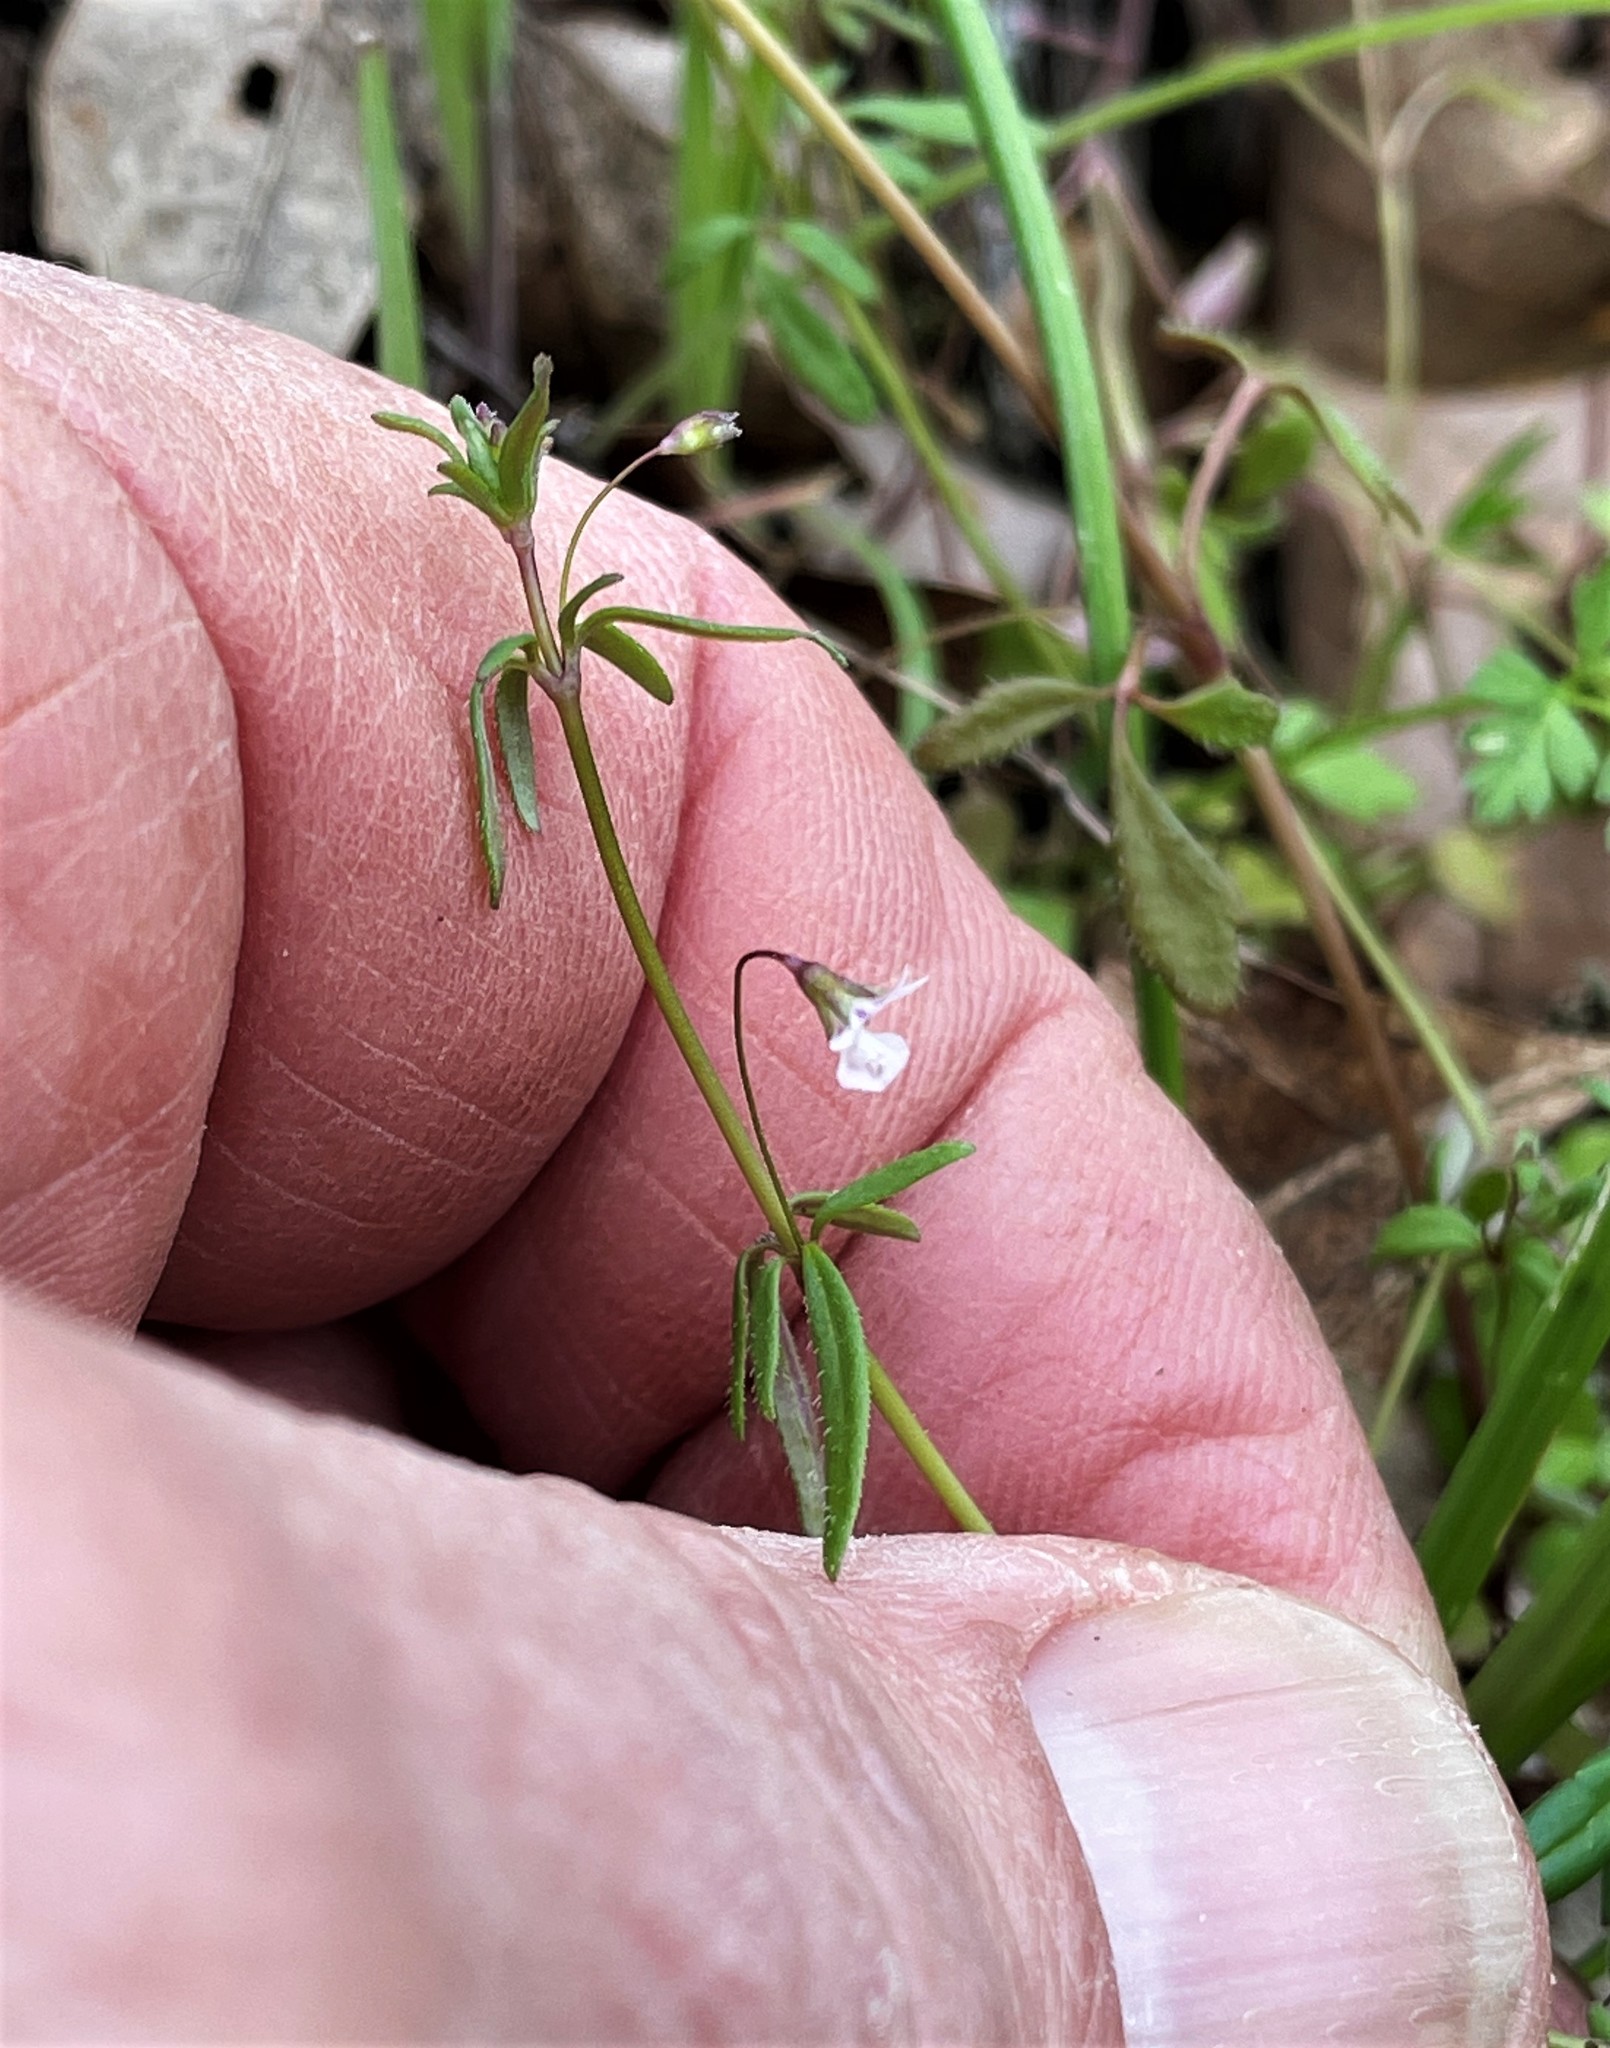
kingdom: Plantae
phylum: Tracheophyta
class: Magnoliopsida
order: Lamiales
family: Plantaginaceae
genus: Tonella
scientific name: Tonella tenella
